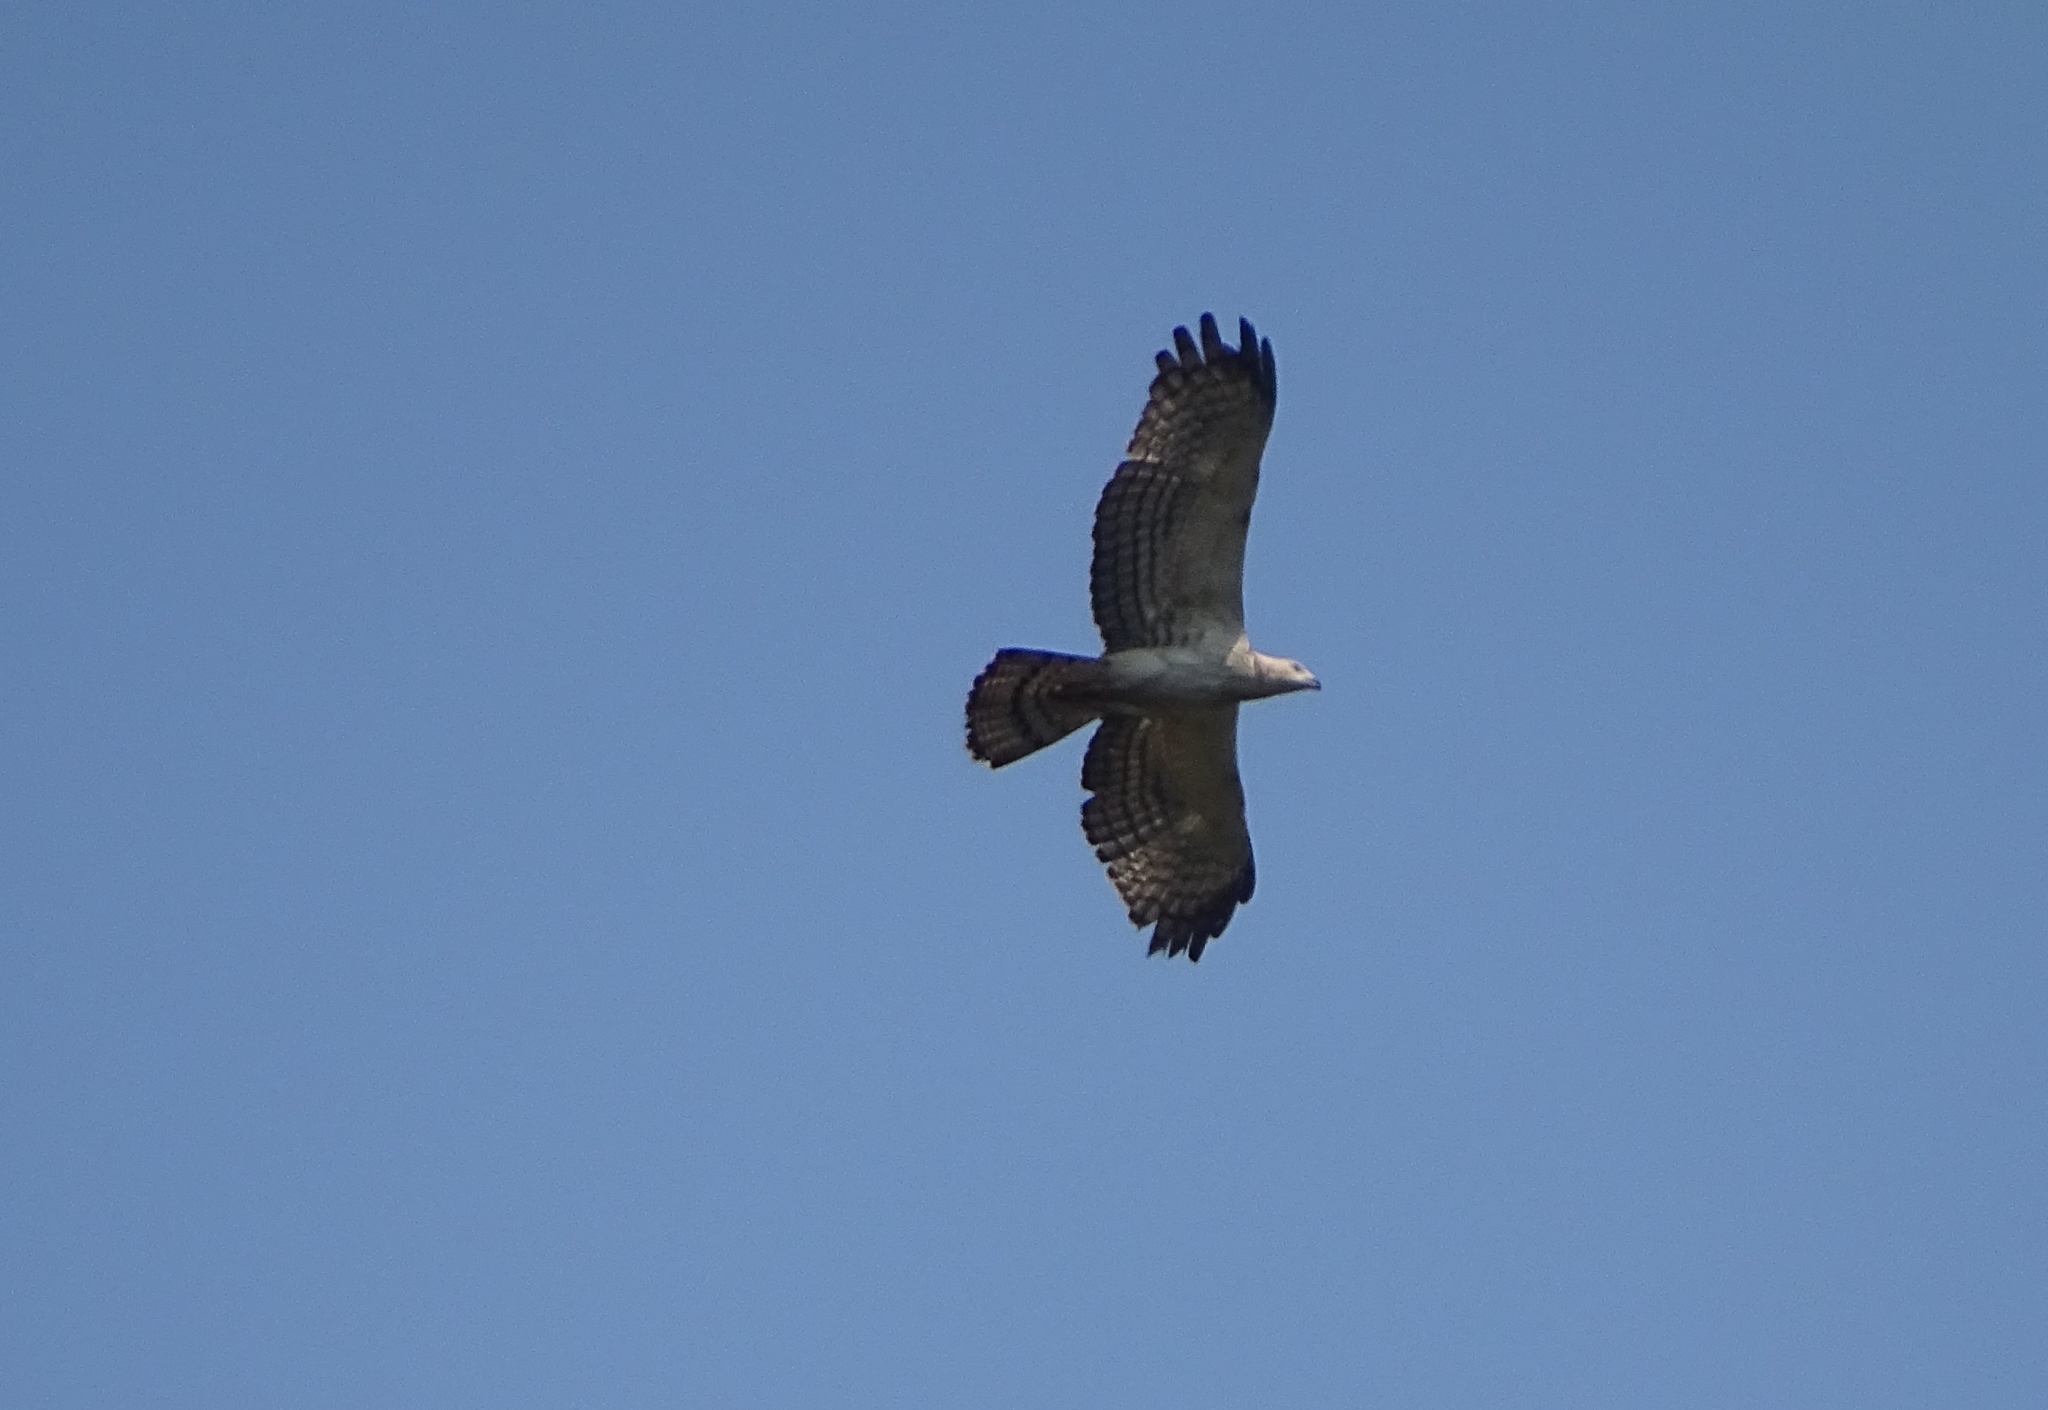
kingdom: Animalia
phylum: Chordata
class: Aves
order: Accipitriformes
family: Accipitridae
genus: Pernis
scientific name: Pernis ptilorhynchus
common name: Crested honey buzzard
